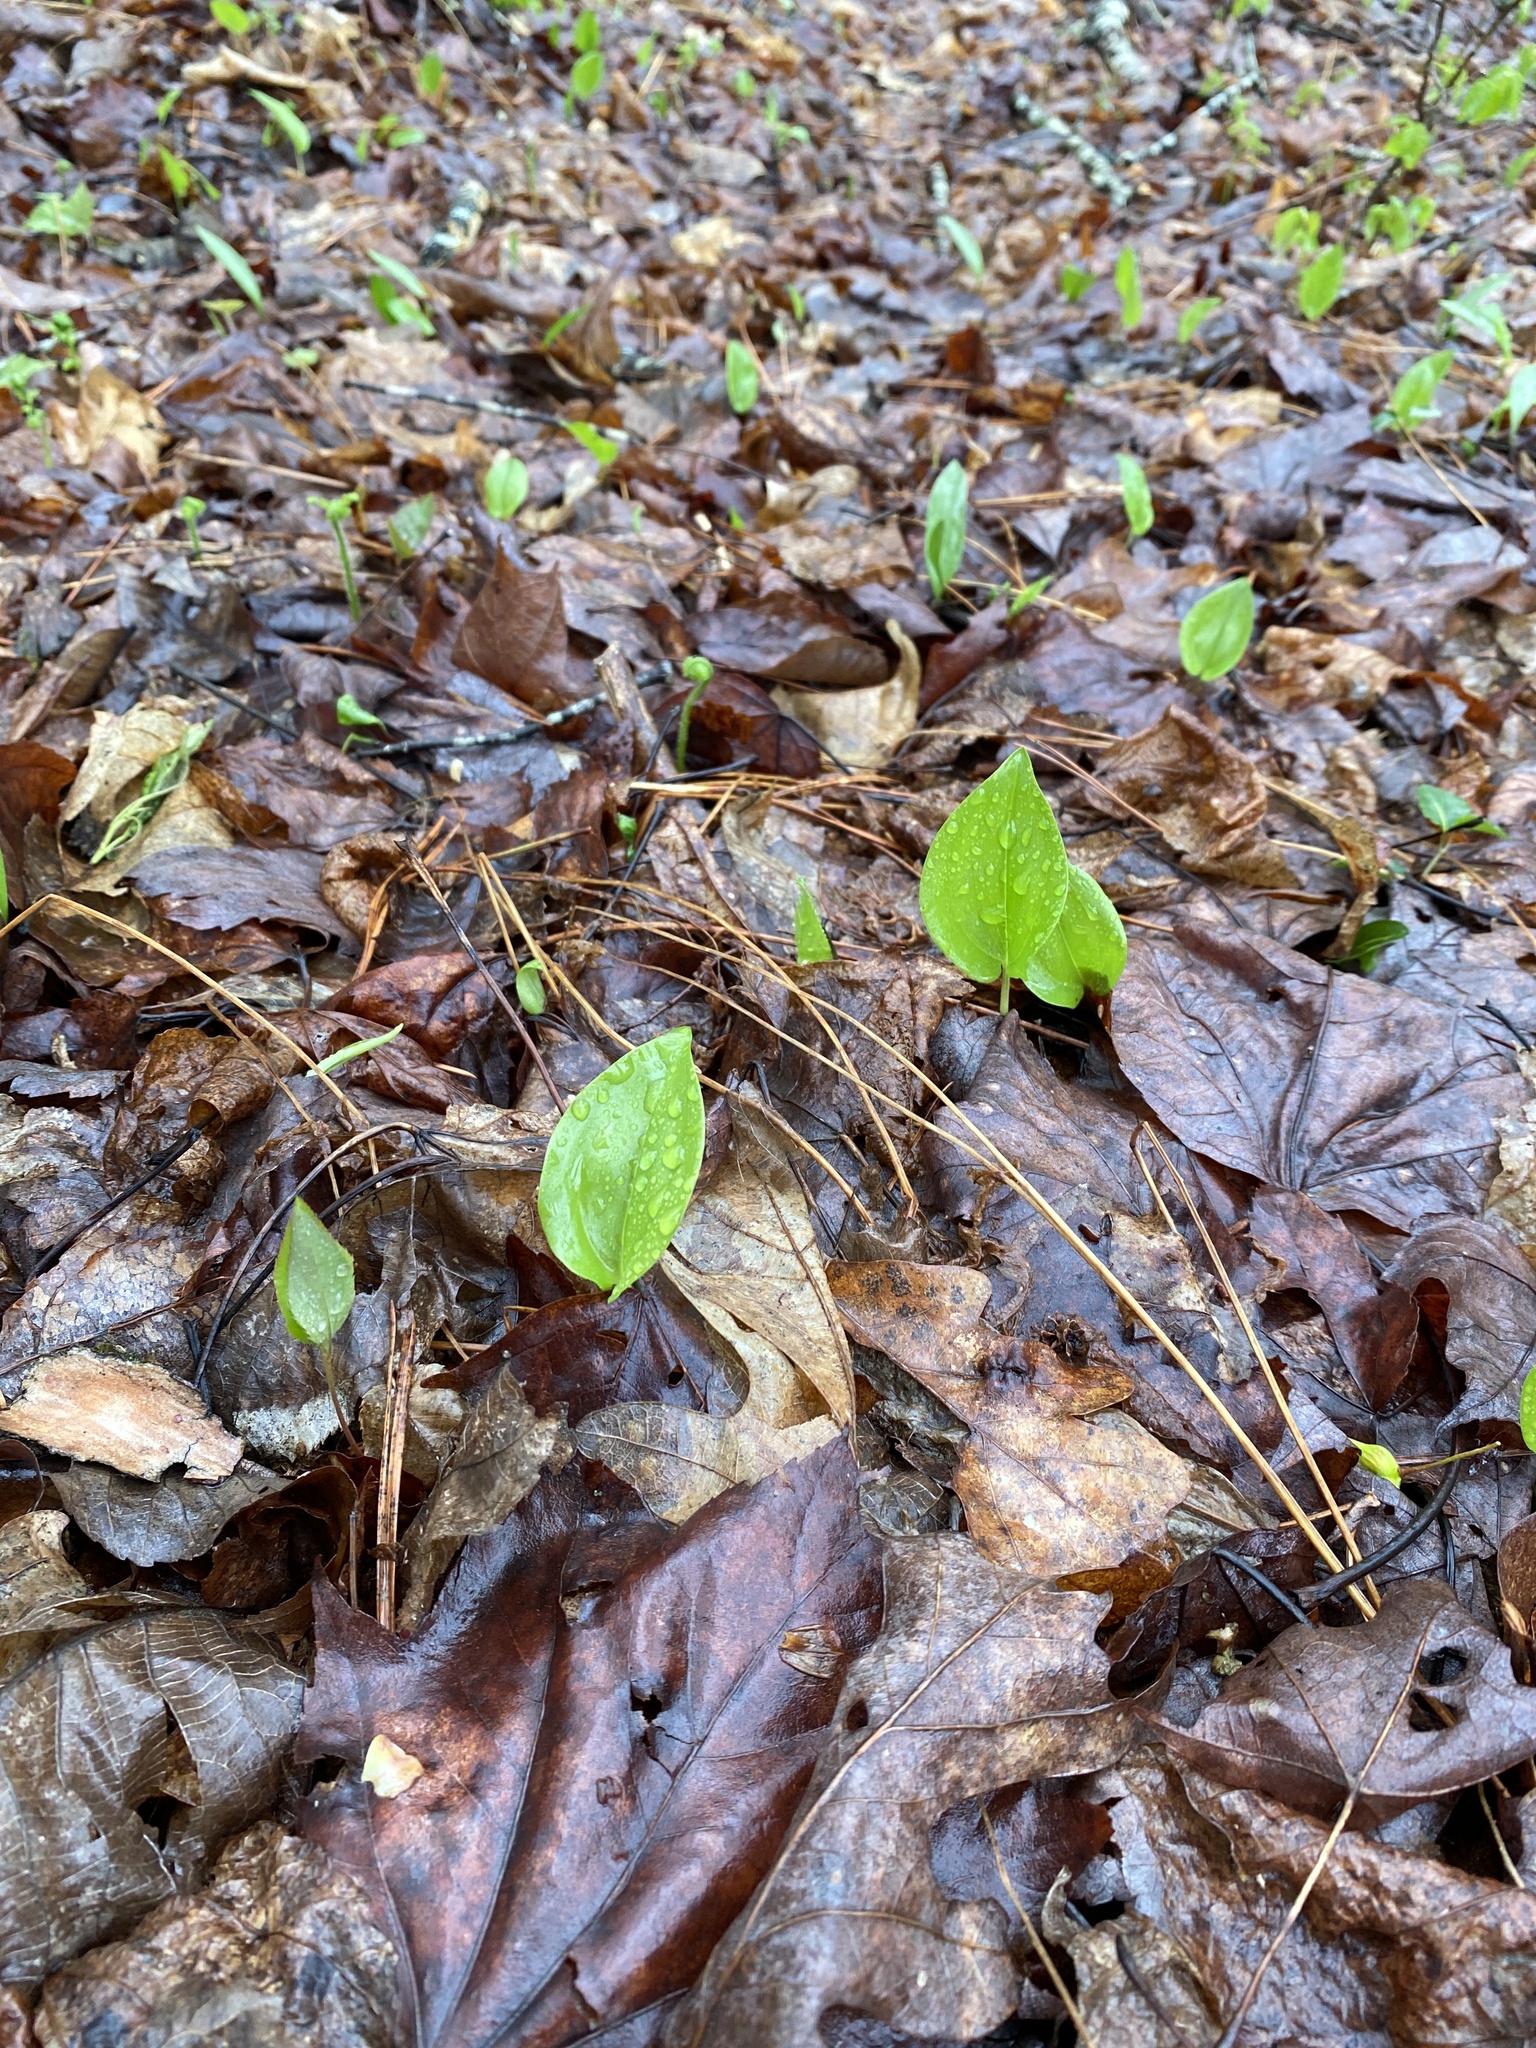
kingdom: Plantae
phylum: Tracheophyta
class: Liliopsida
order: Asparagales
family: Asparagaceae
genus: Maianthemum
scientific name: Maianthemum canadense
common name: False lily-of-the-valley
